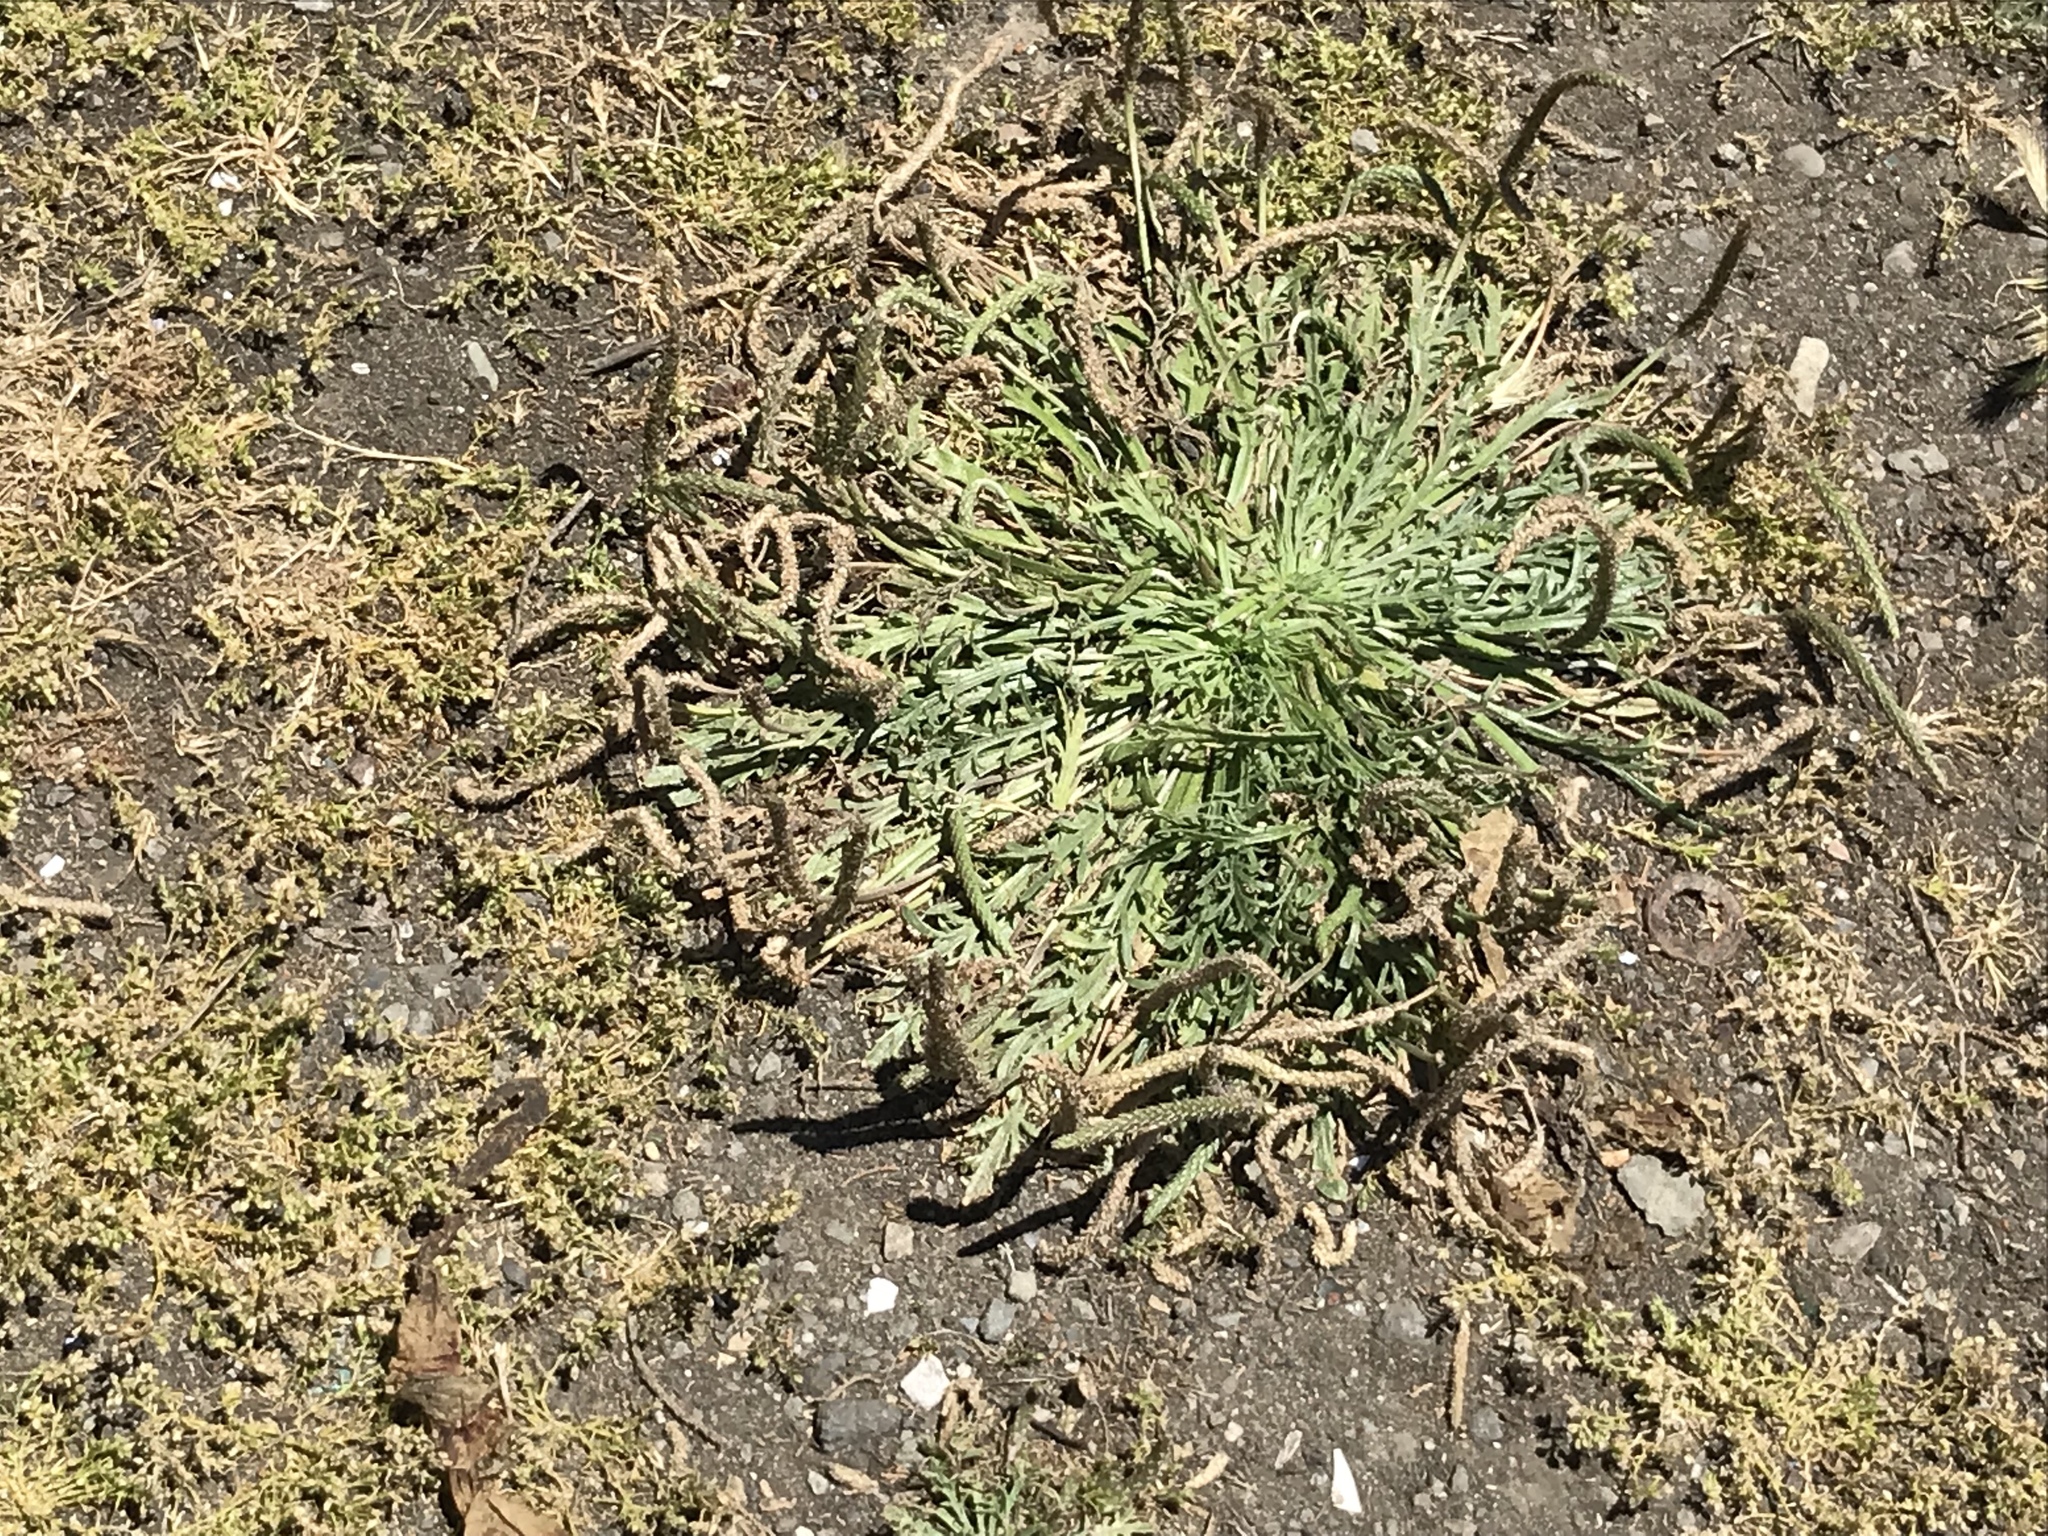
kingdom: Plantae
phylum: Tracheophyta
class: Magnoliopsida
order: Lamiales
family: Plantaginaceae
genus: Plantago
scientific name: Plantago coronopus
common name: Buck's-horn plantain
